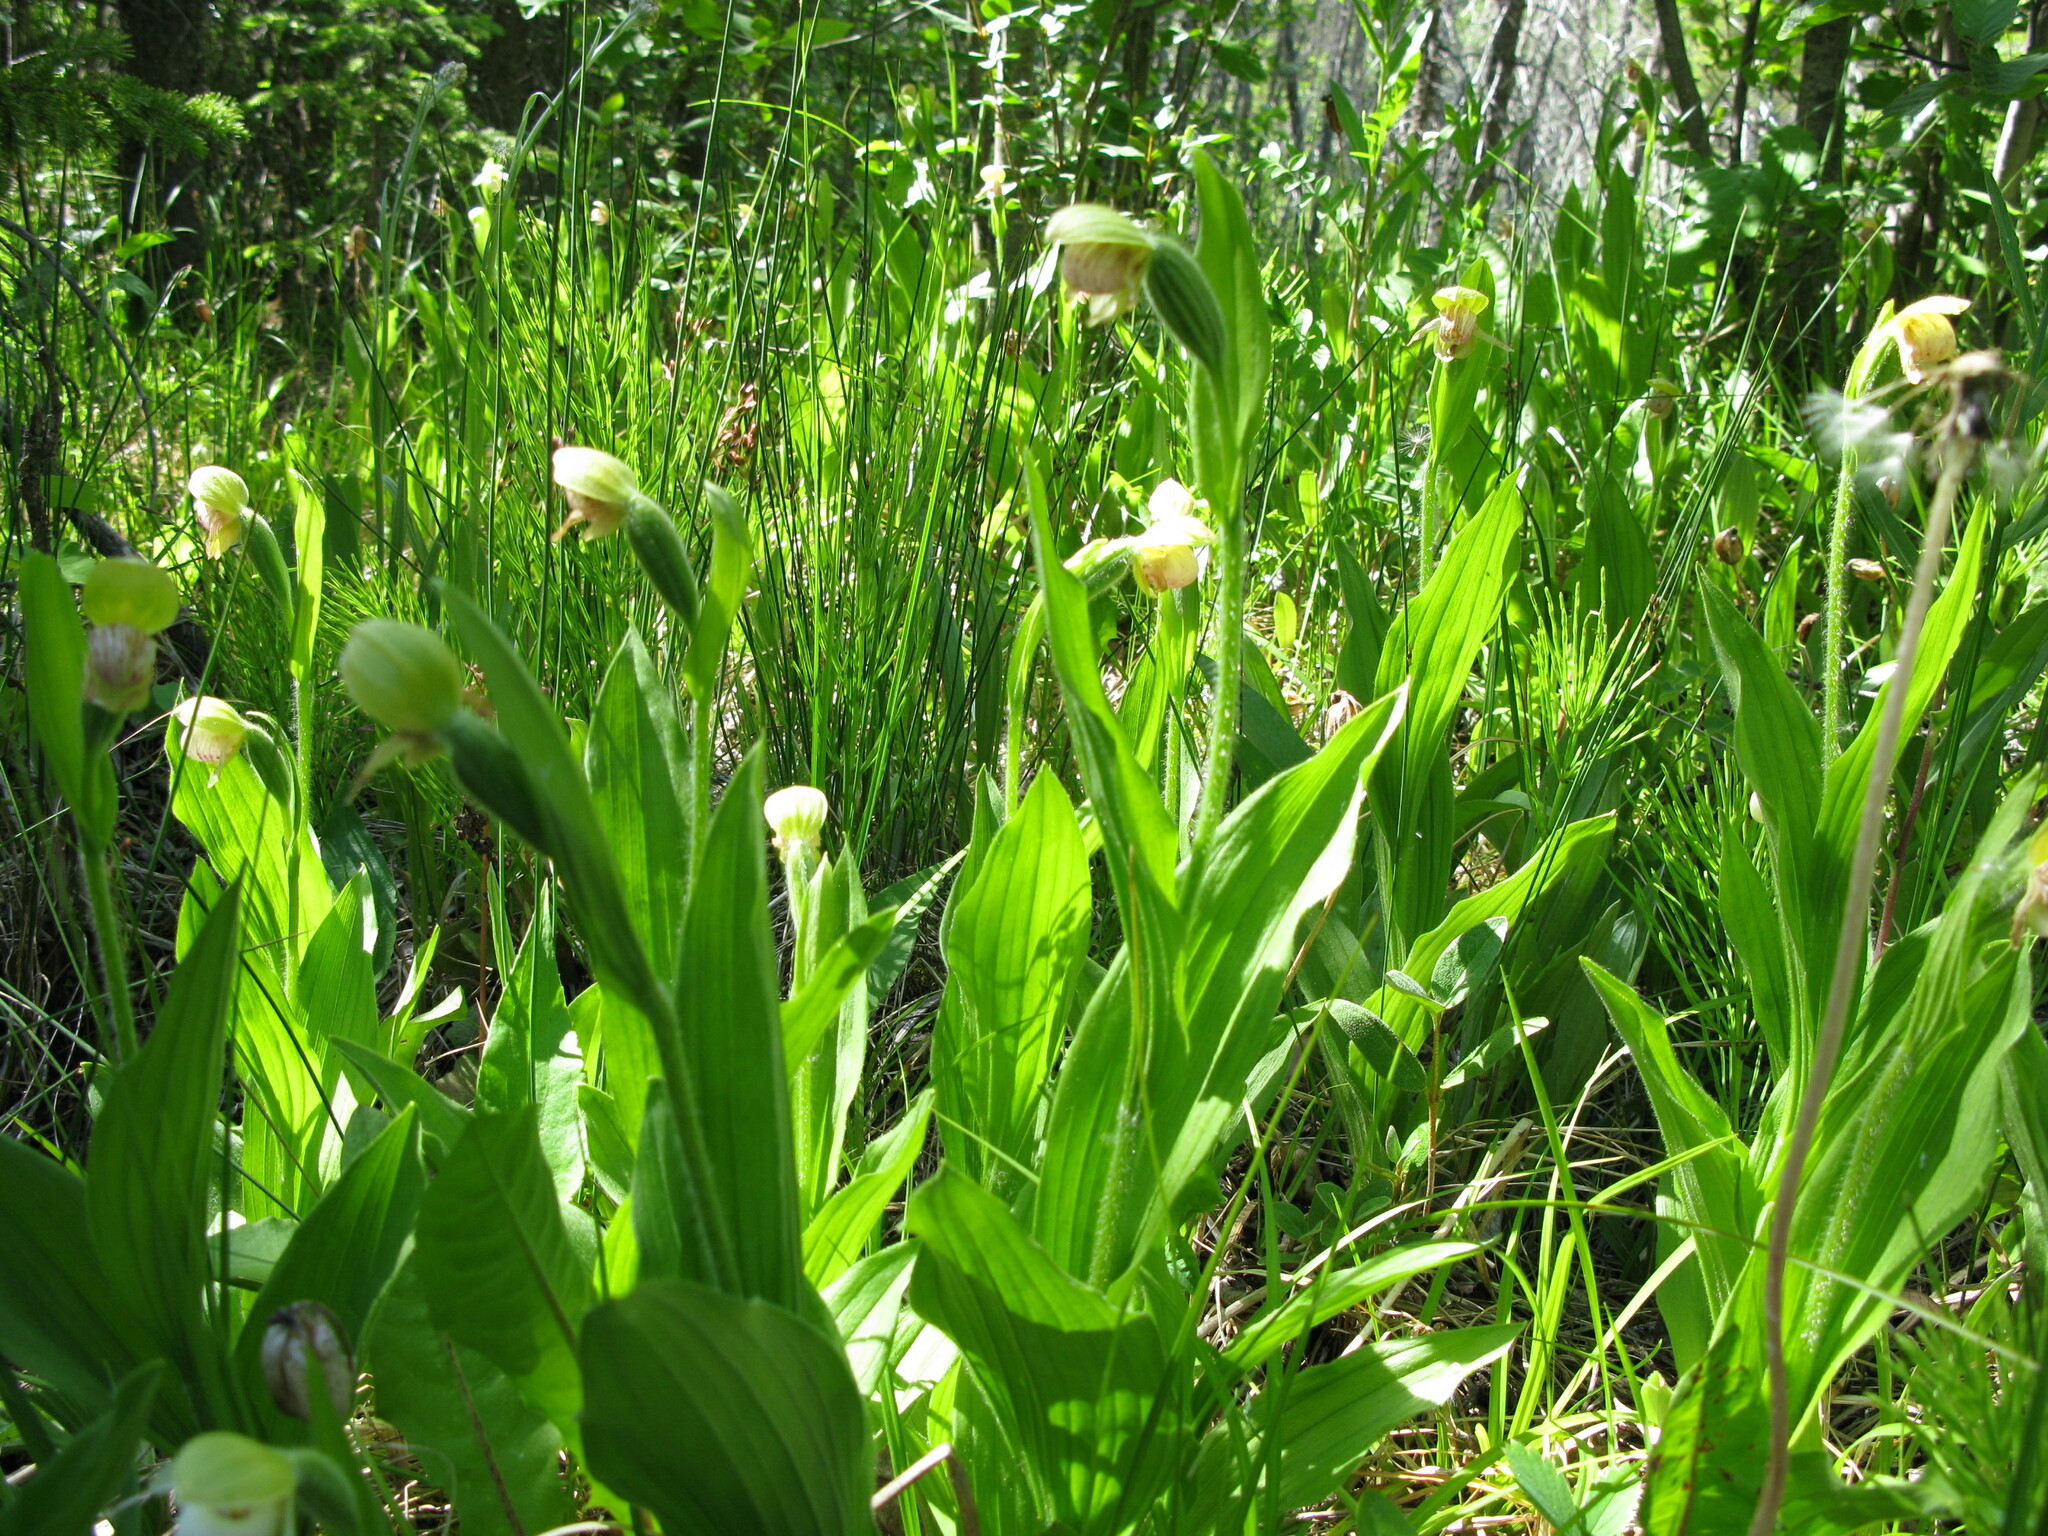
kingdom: Plantae
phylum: Tracheophyta
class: Liliopsida
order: Asparagales
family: Orchidaceae
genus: Cypripedium
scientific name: Cypripedium passerinum
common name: Sparrow's-egg lady's-slipper
